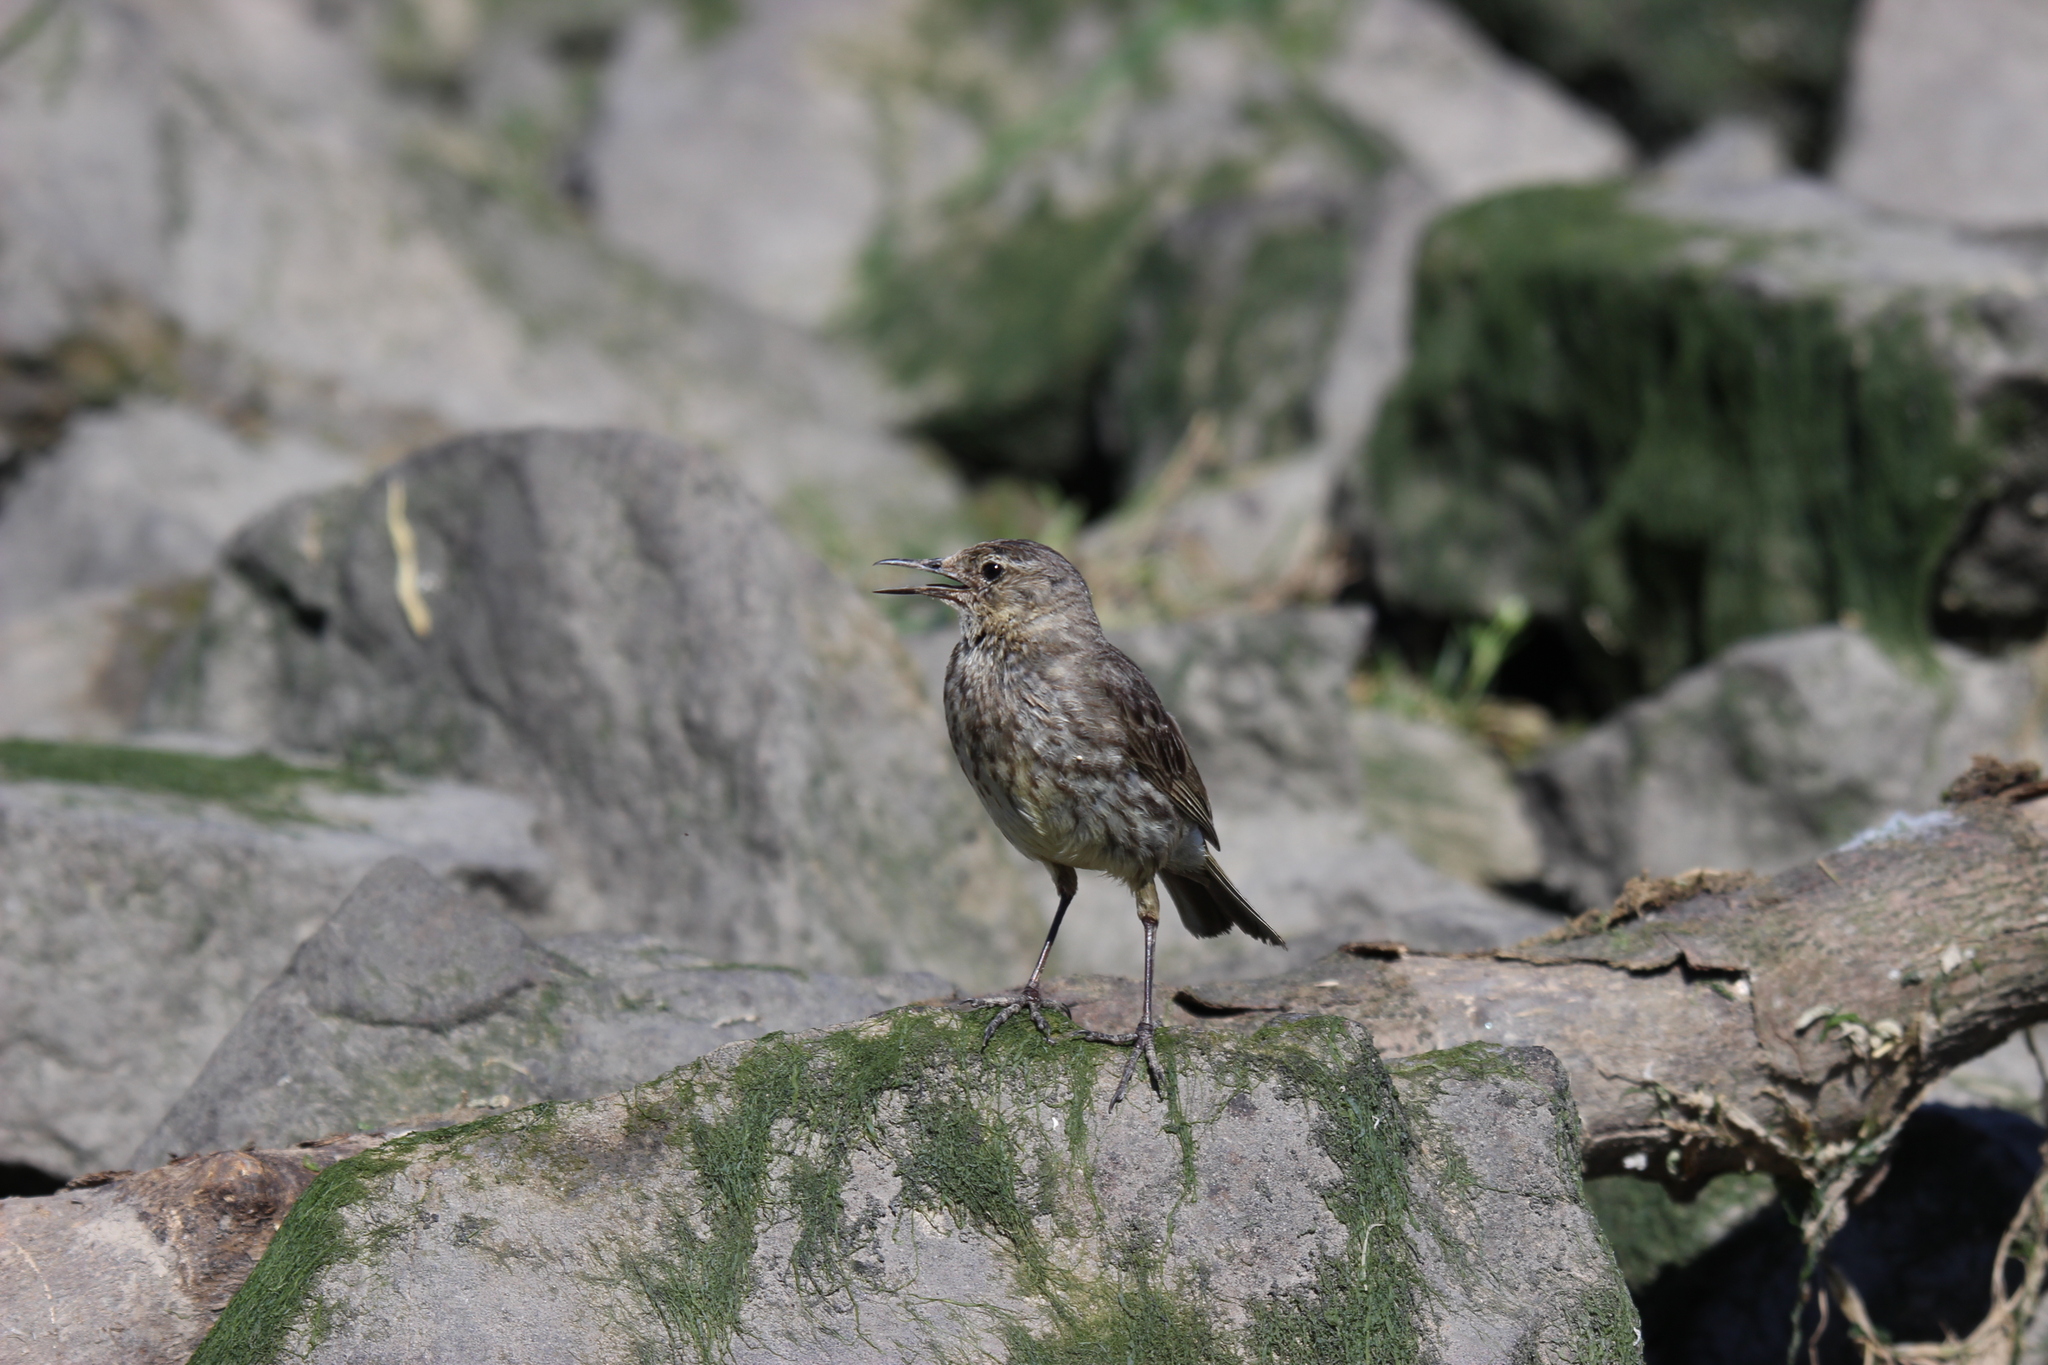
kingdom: Animalia
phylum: Chordata
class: Aves
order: Passeriformes
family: Motacillidae
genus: Anthus
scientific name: Anthus petrosus
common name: Eurasian rock pipit
